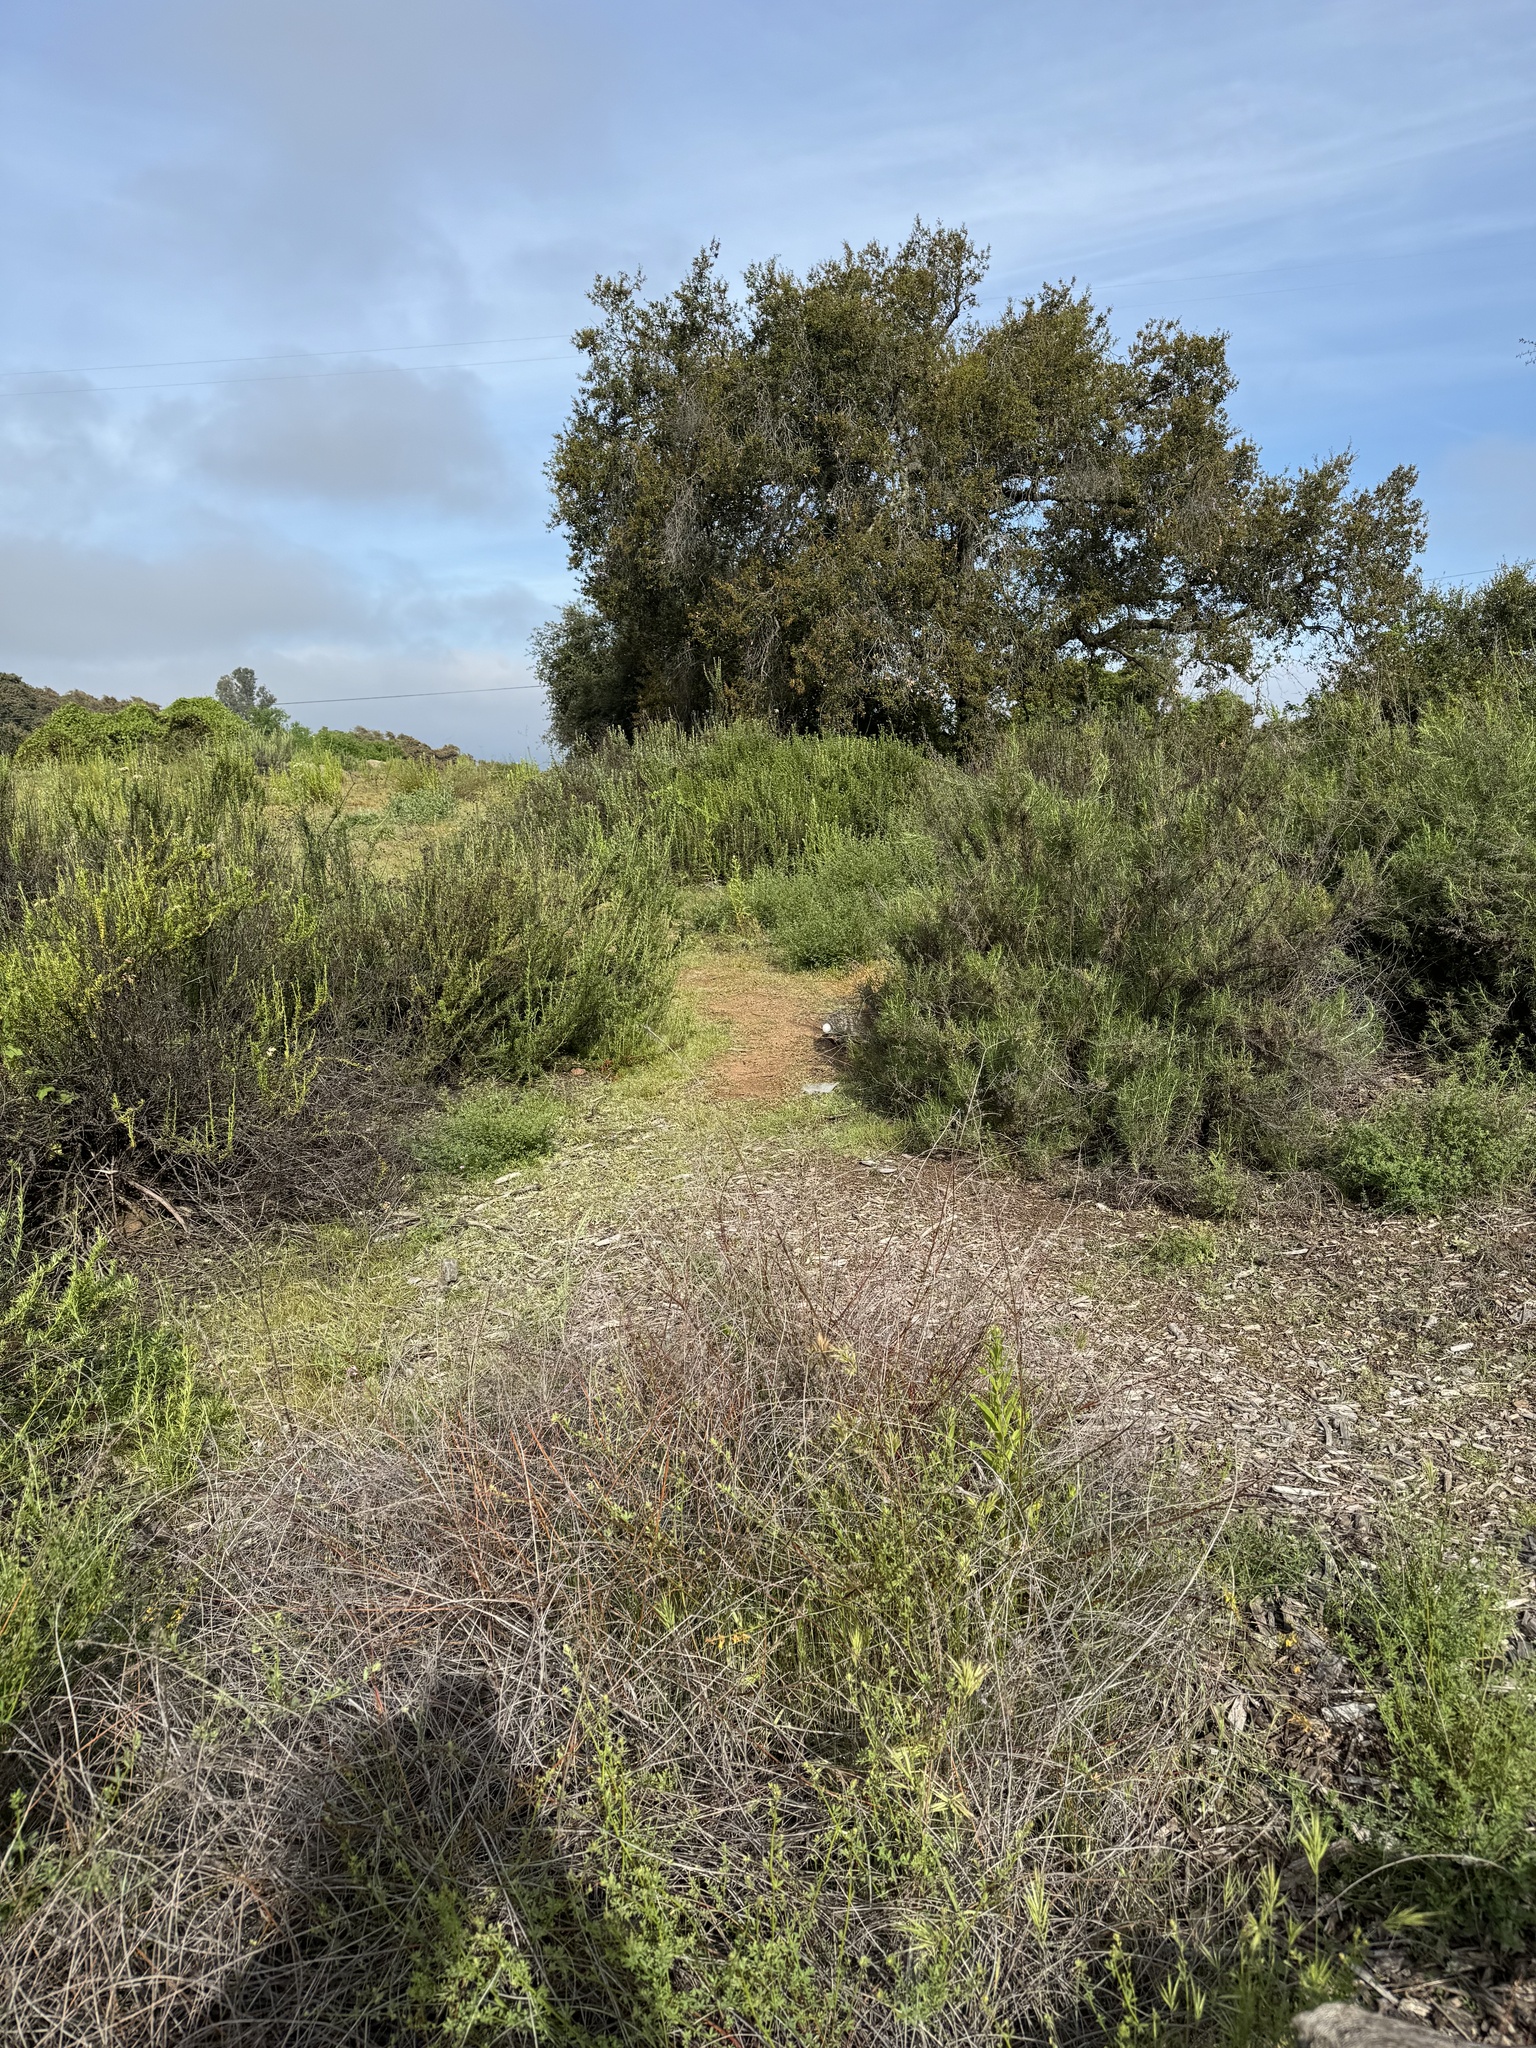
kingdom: Animalia
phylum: Chordata
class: Mammalia
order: Lagomorpha
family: Leporidae
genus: Sylvilagus
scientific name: Sylvilagus audubonii
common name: Desert cottontail
